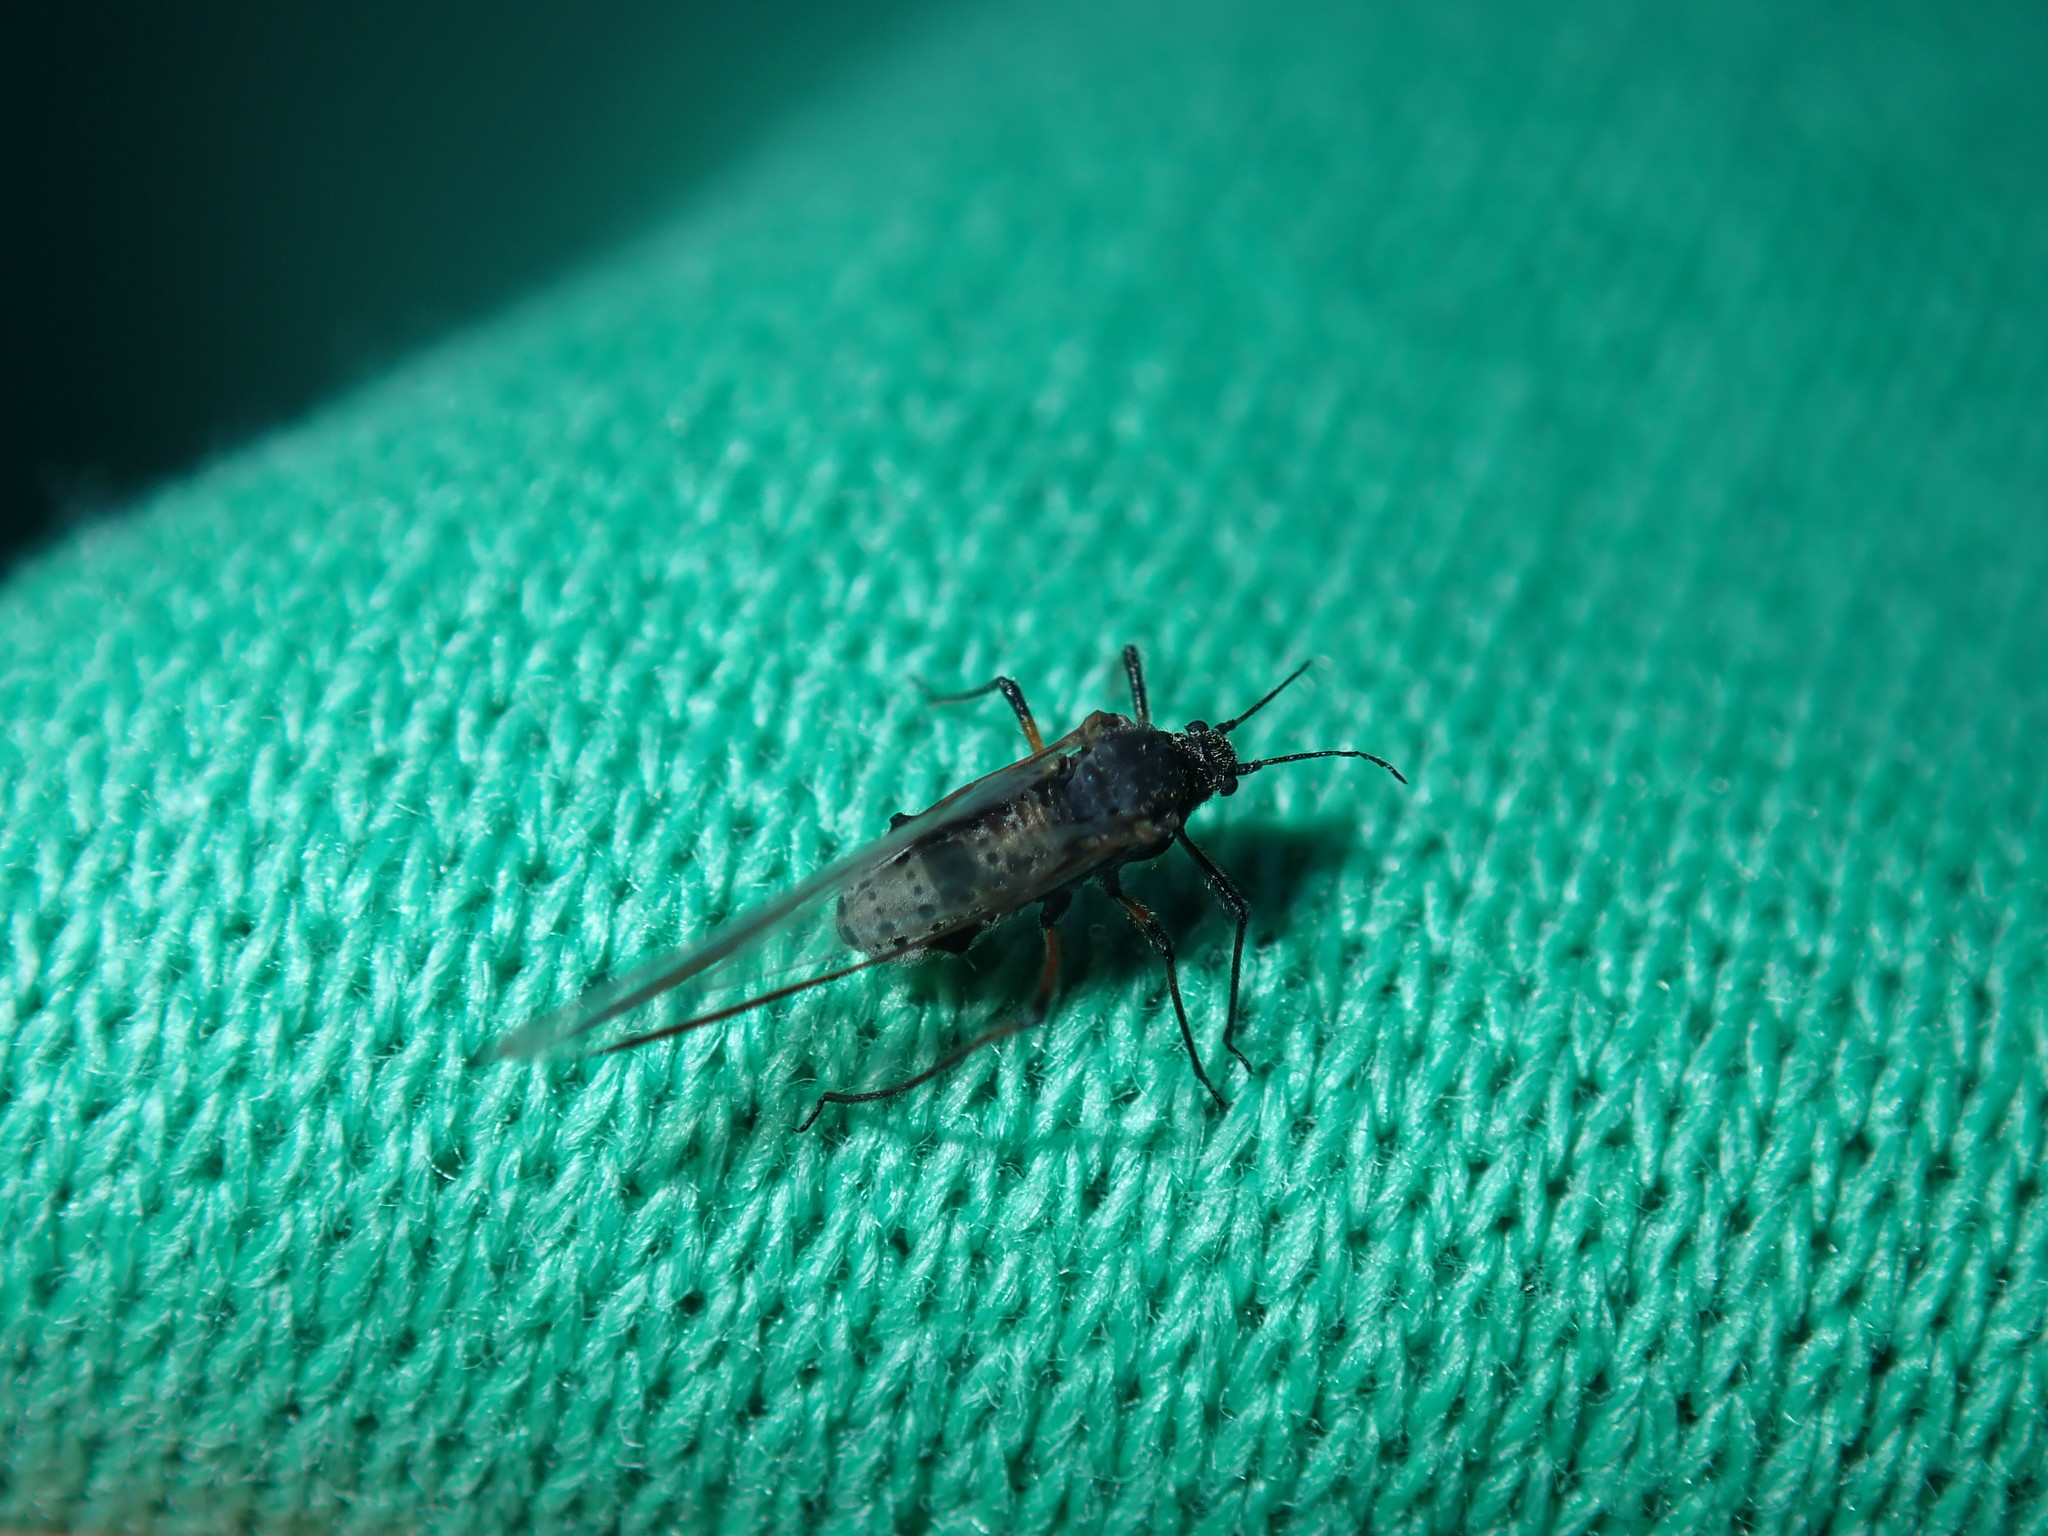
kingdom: Animalia
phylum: Arthropoda
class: Insecta
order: Hemiptera
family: Aphididae
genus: Tuberolachnus
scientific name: Tuberolachnus salignus
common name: Giant willow aphid
